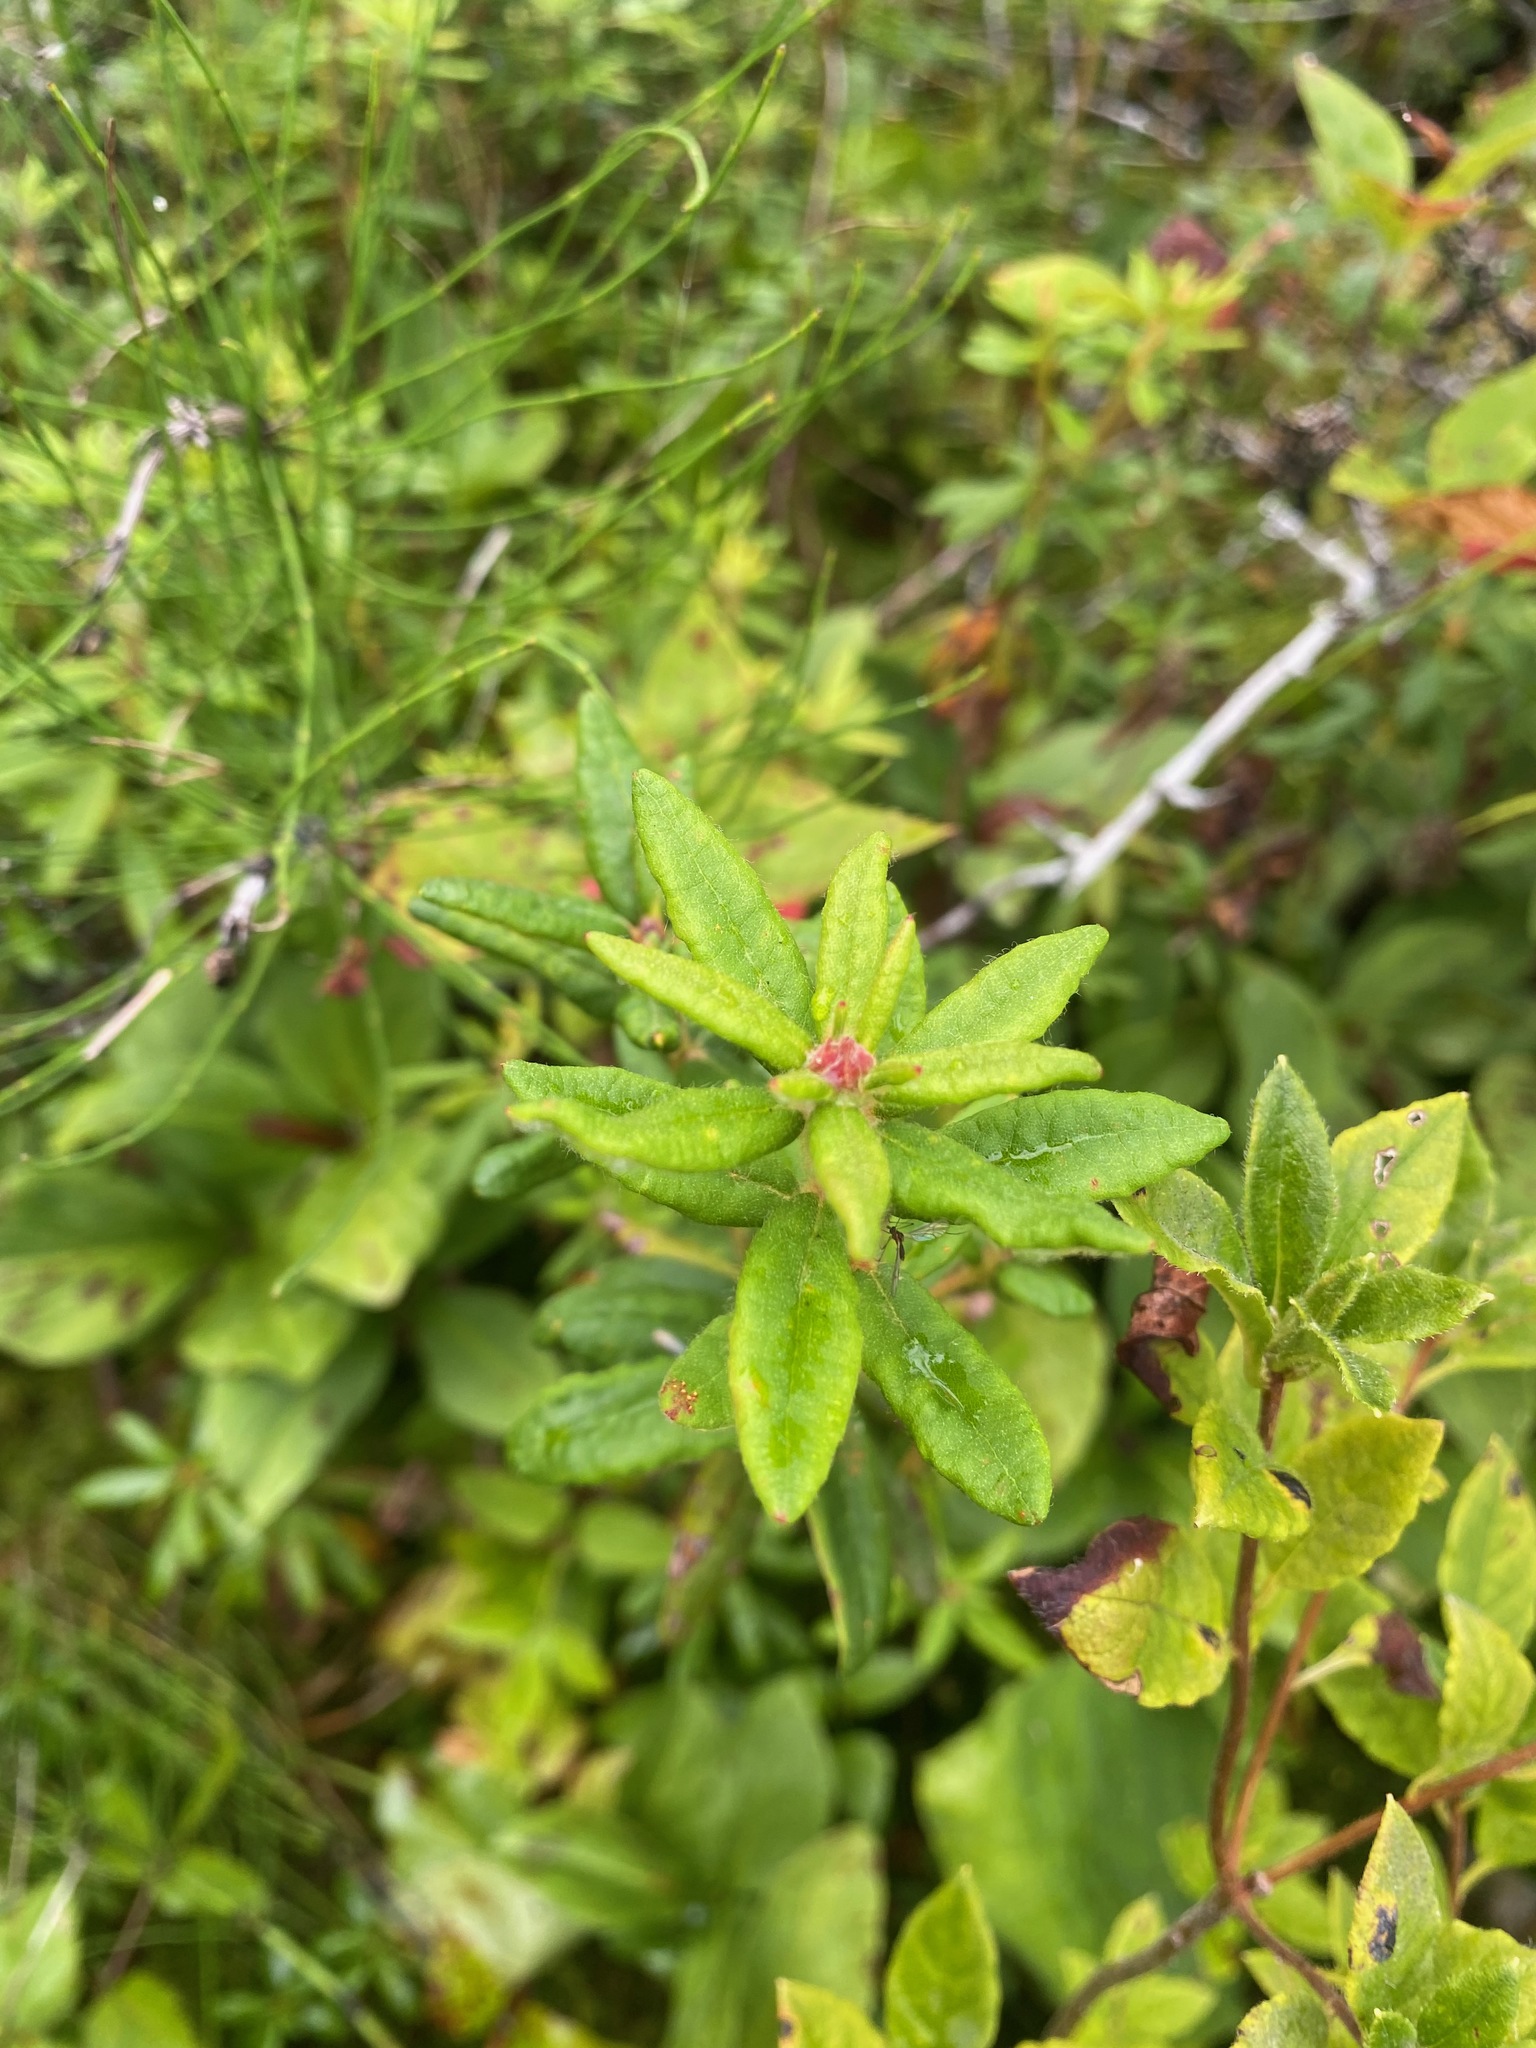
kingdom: Plantae
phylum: Tracheophyta
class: Magnoliopsida
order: Ericales
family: Ericaceae
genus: Rhododendron
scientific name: Rhododendron groenlandicum
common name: Bog labrador tea
